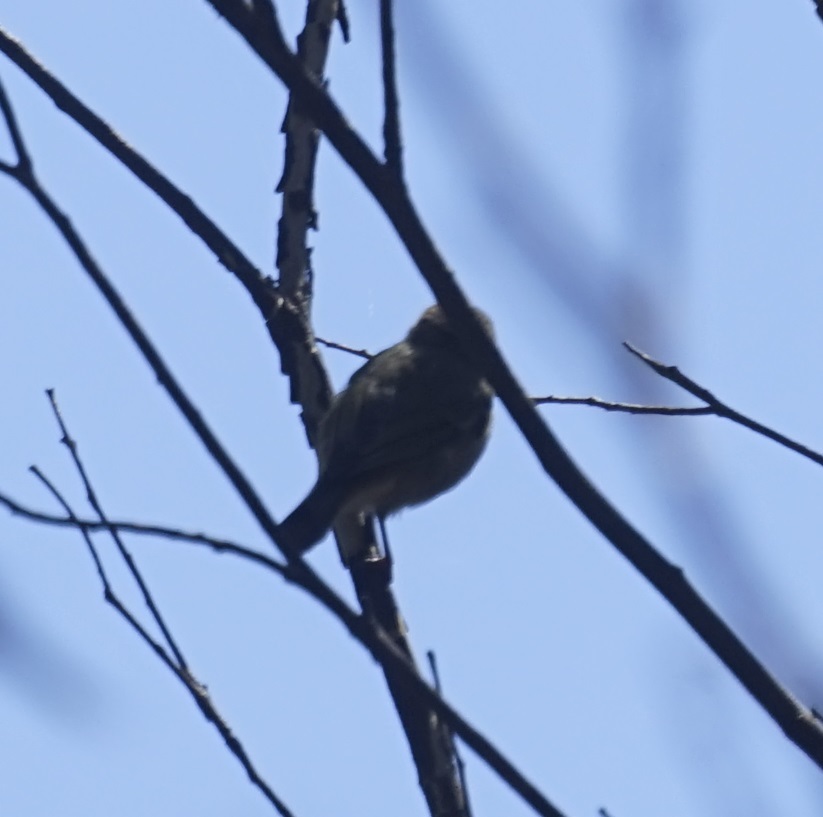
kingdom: Animalia
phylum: Chordata
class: Aves
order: Passeriformes
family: Acanthizidae
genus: Acanthiza
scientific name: Acanthiza lineata
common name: Striated thornbill
